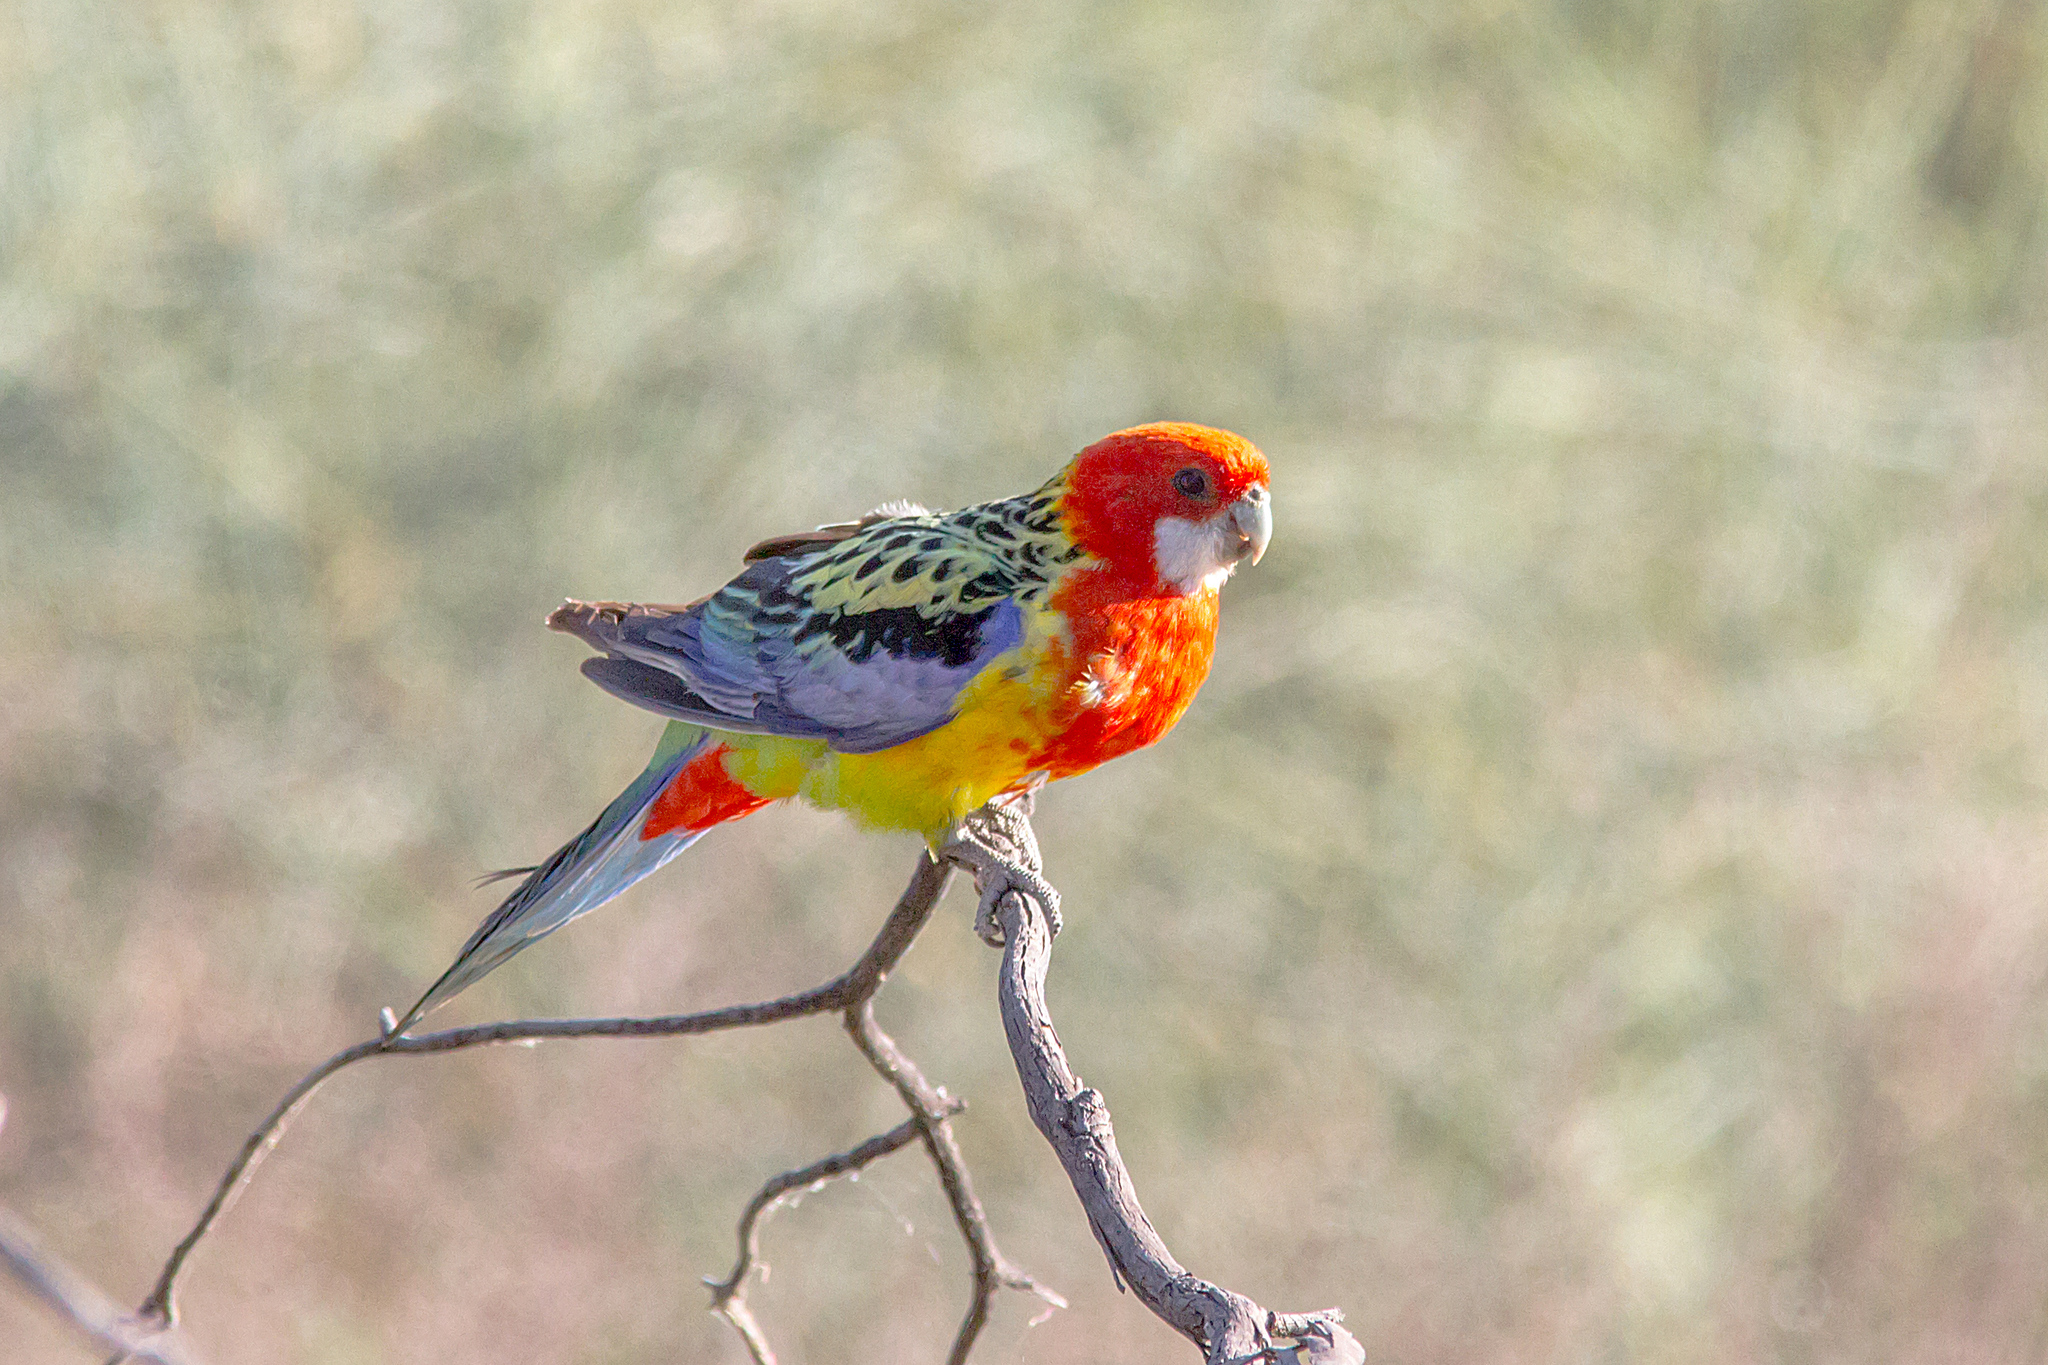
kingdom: Animalia
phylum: Chordata
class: Aves
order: Psittaciformes
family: Psittacidae
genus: Platycercus
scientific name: Platycercus eximius
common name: Eastern rosella
